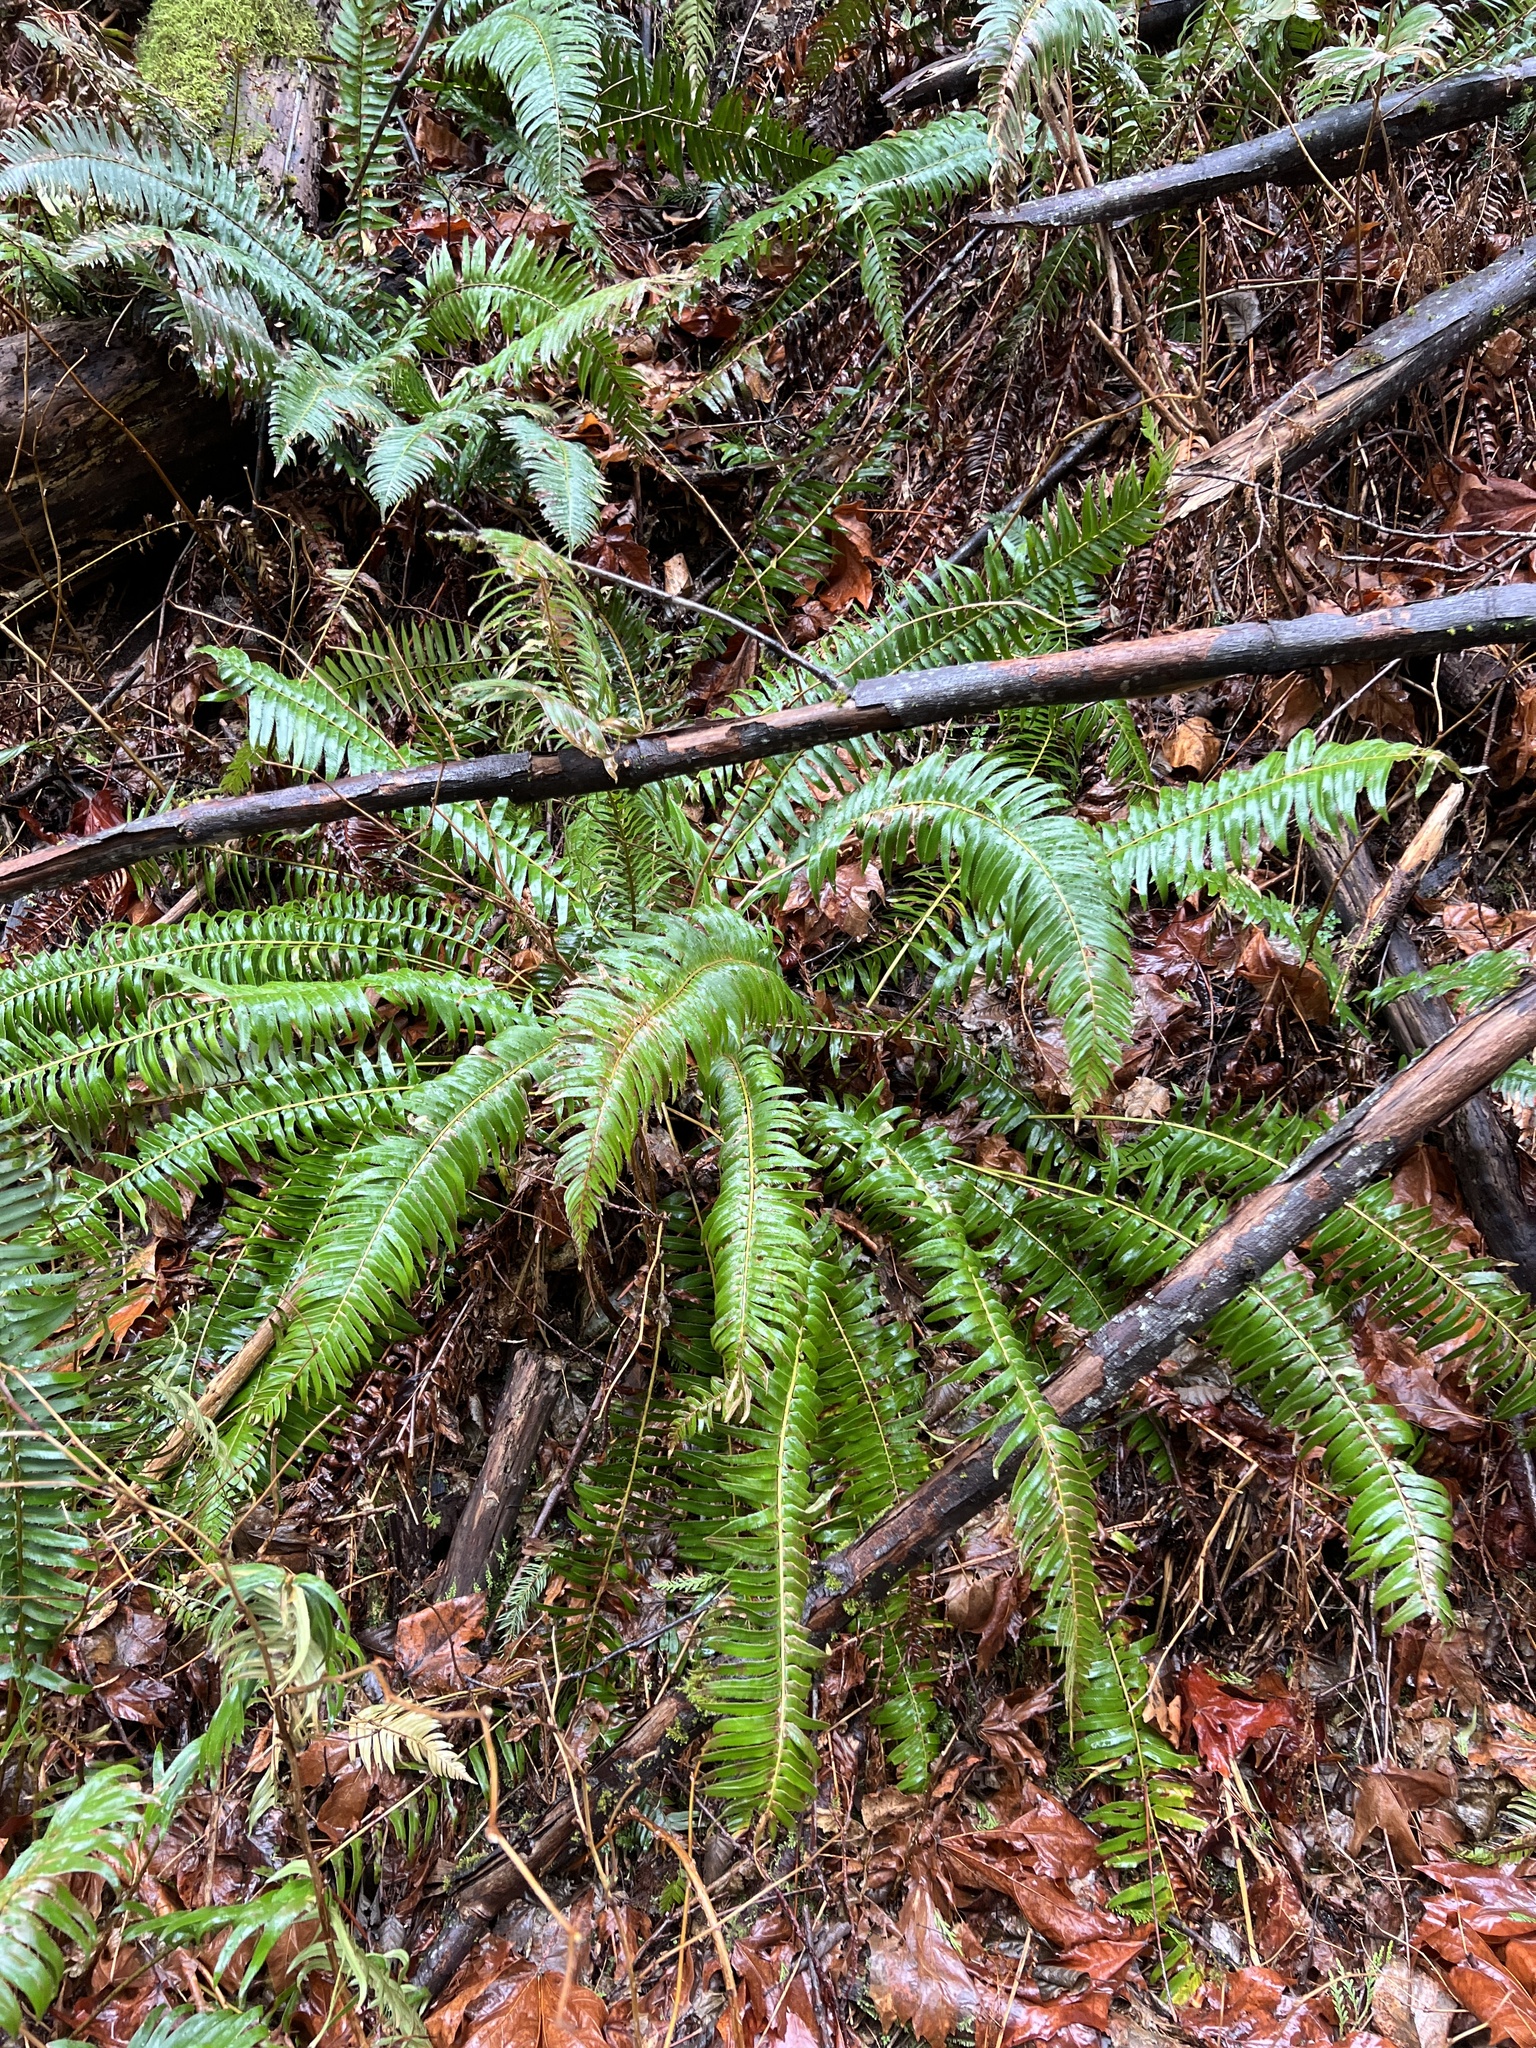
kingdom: Plantae
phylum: Tracheophyta
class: Polypodiopsida
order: Polypodiales
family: Dryopteridaceae
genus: Polystichum
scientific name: Polystichum munitum
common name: Western sword-fern
